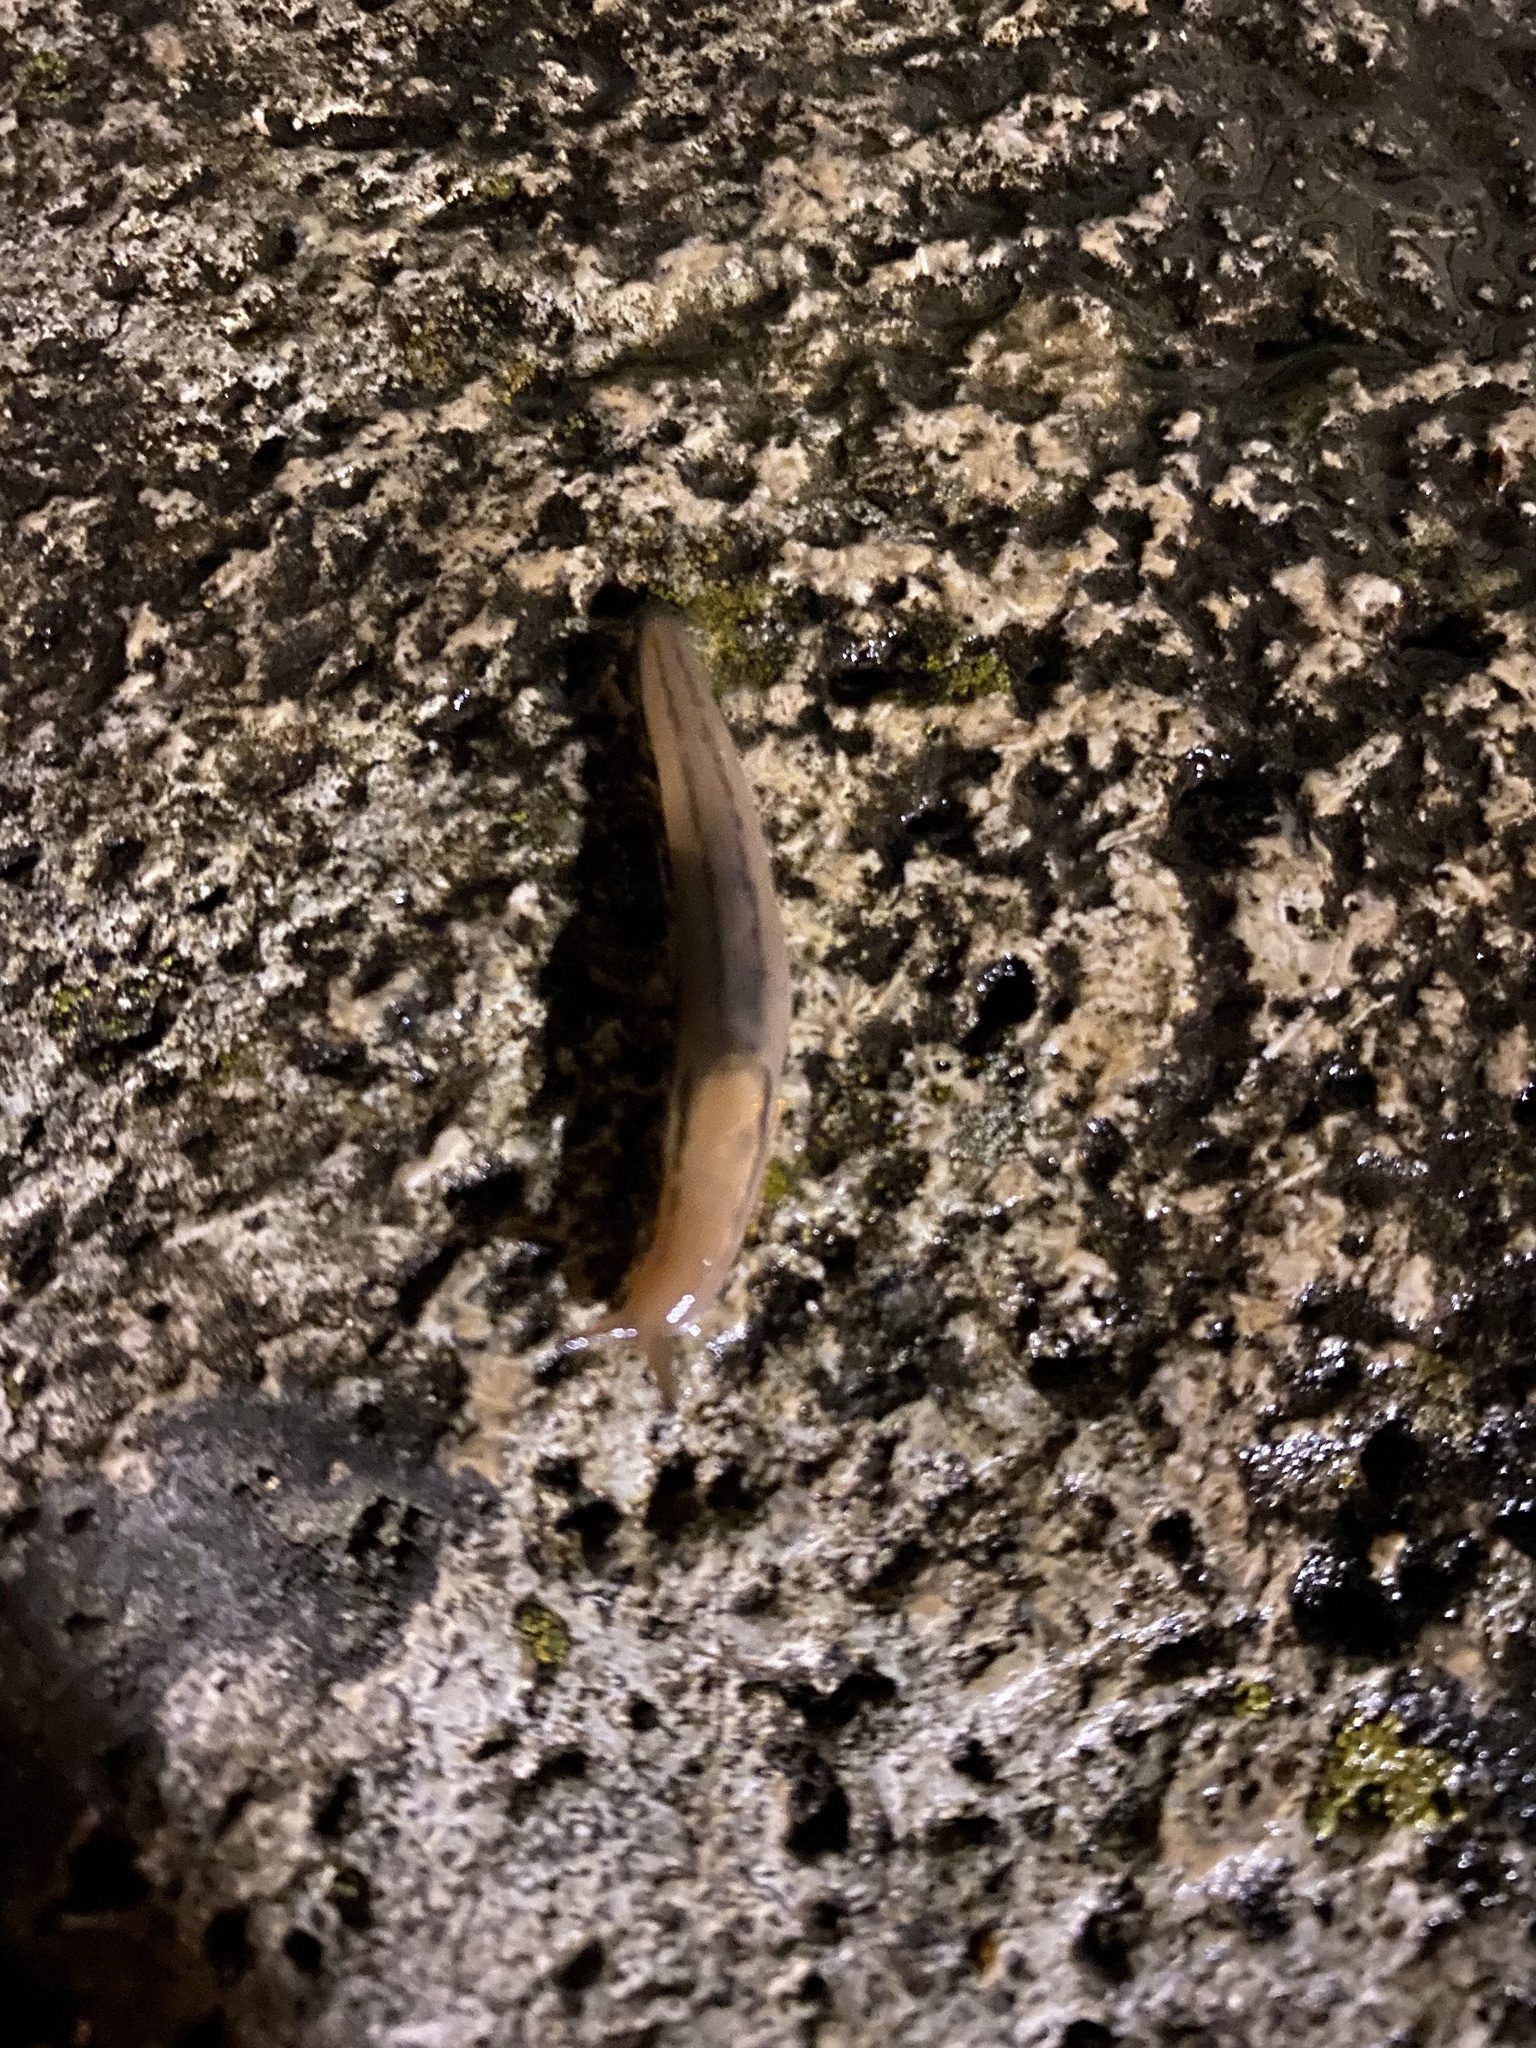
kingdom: Animalia
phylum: Mollusca
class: Gastropoda
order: Stylommatophora
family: Limacidae
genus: Ambigolimax
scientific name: Ambigolimax valentianus
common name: Greenhouse slug
